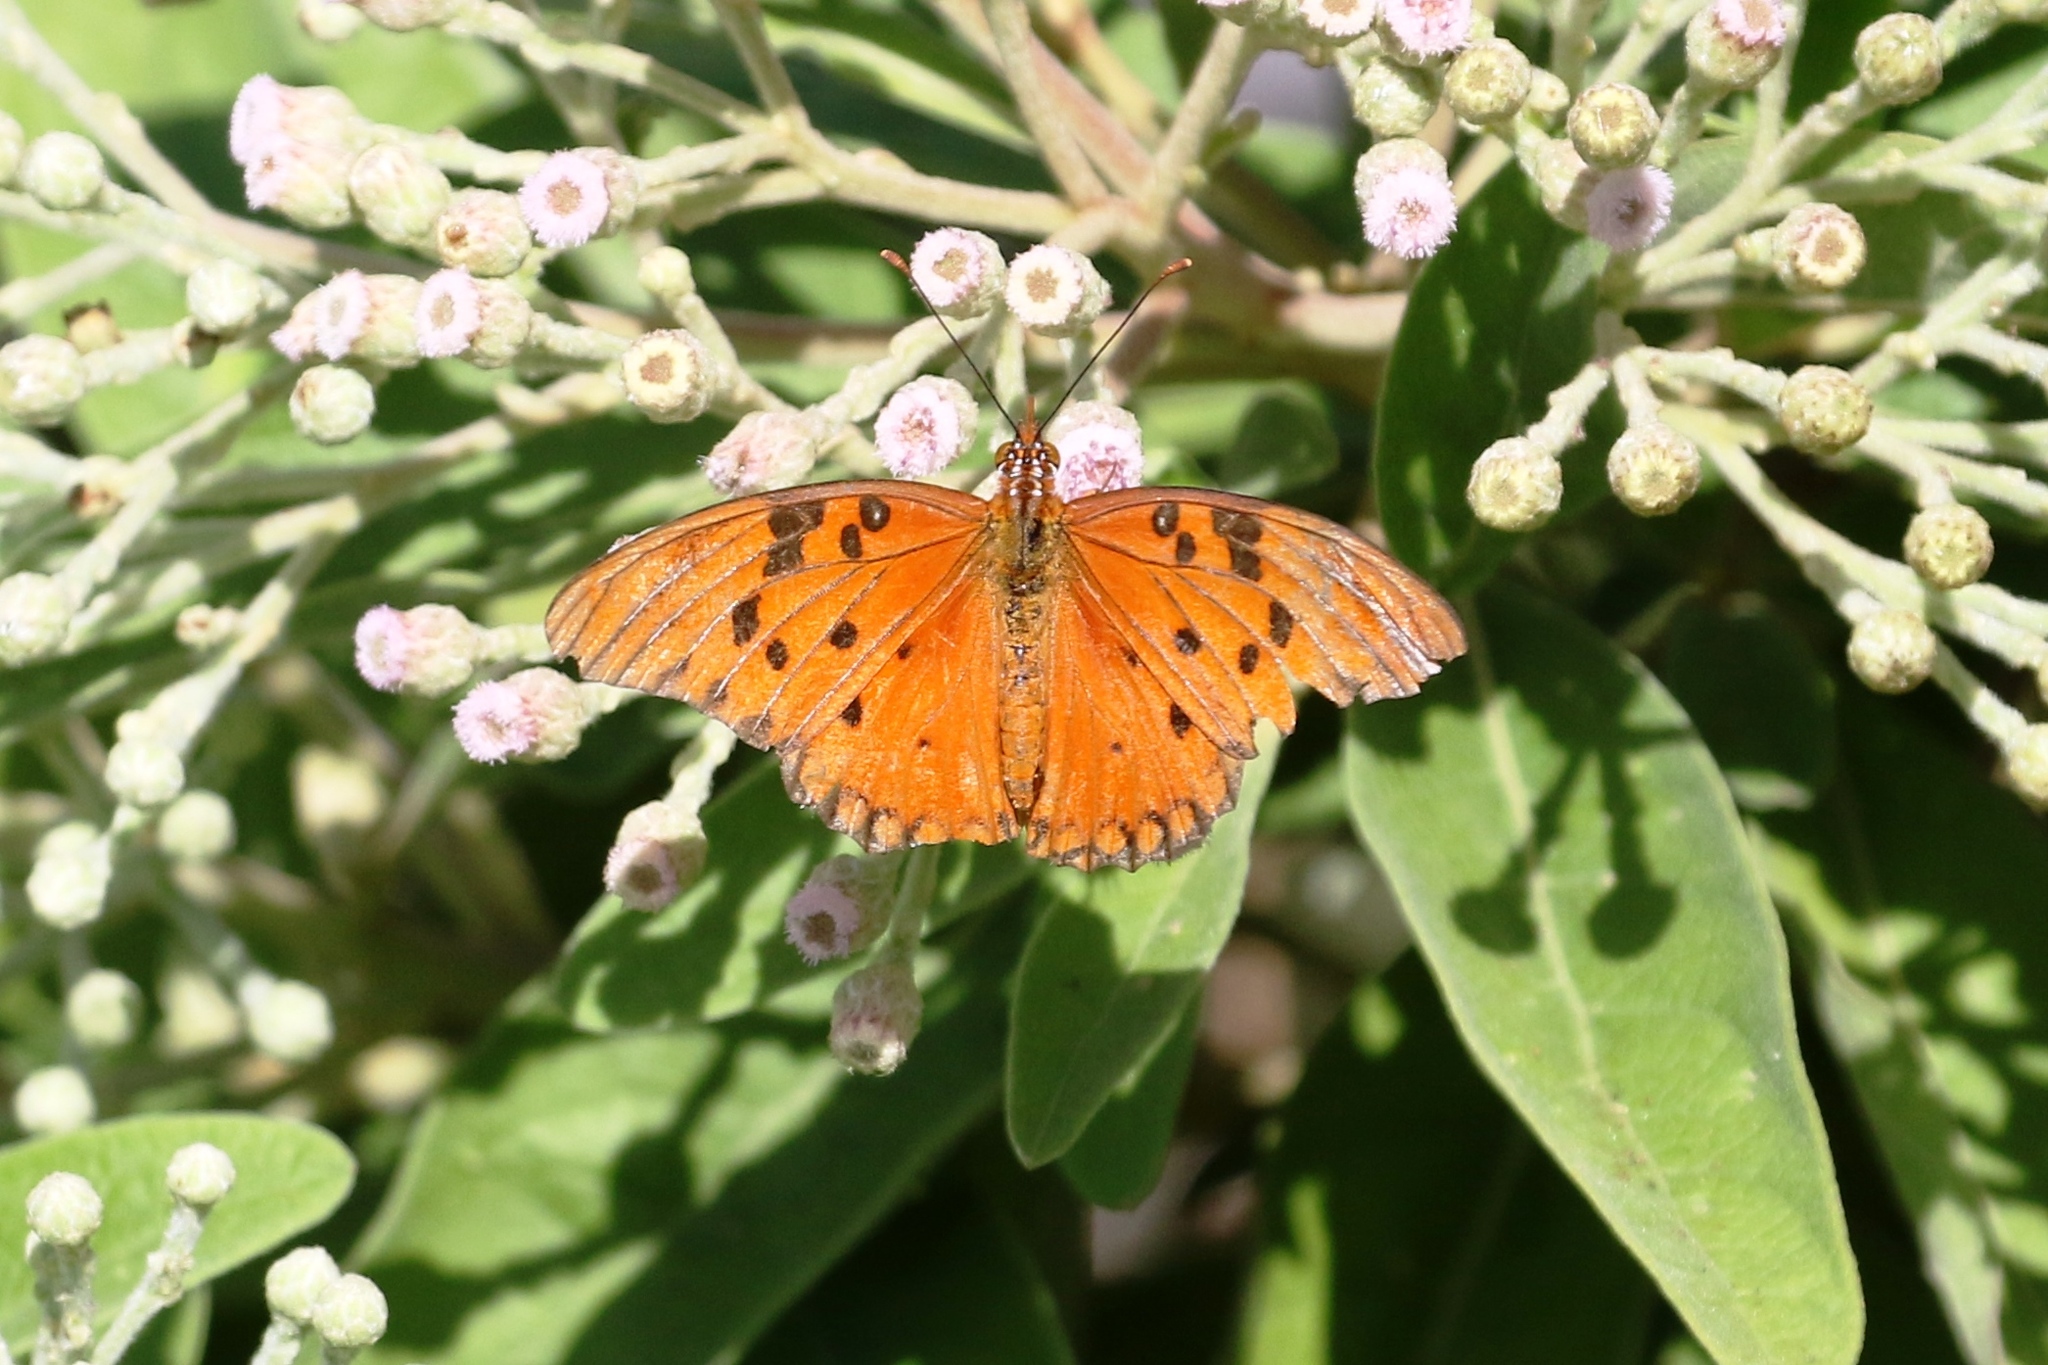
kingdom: Animalia
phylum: Arthropoda
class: Insecta
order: Lepidoptera
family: Nymphalidae
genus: Dione
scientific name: Dione vanillae
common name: Gulf fritillary
